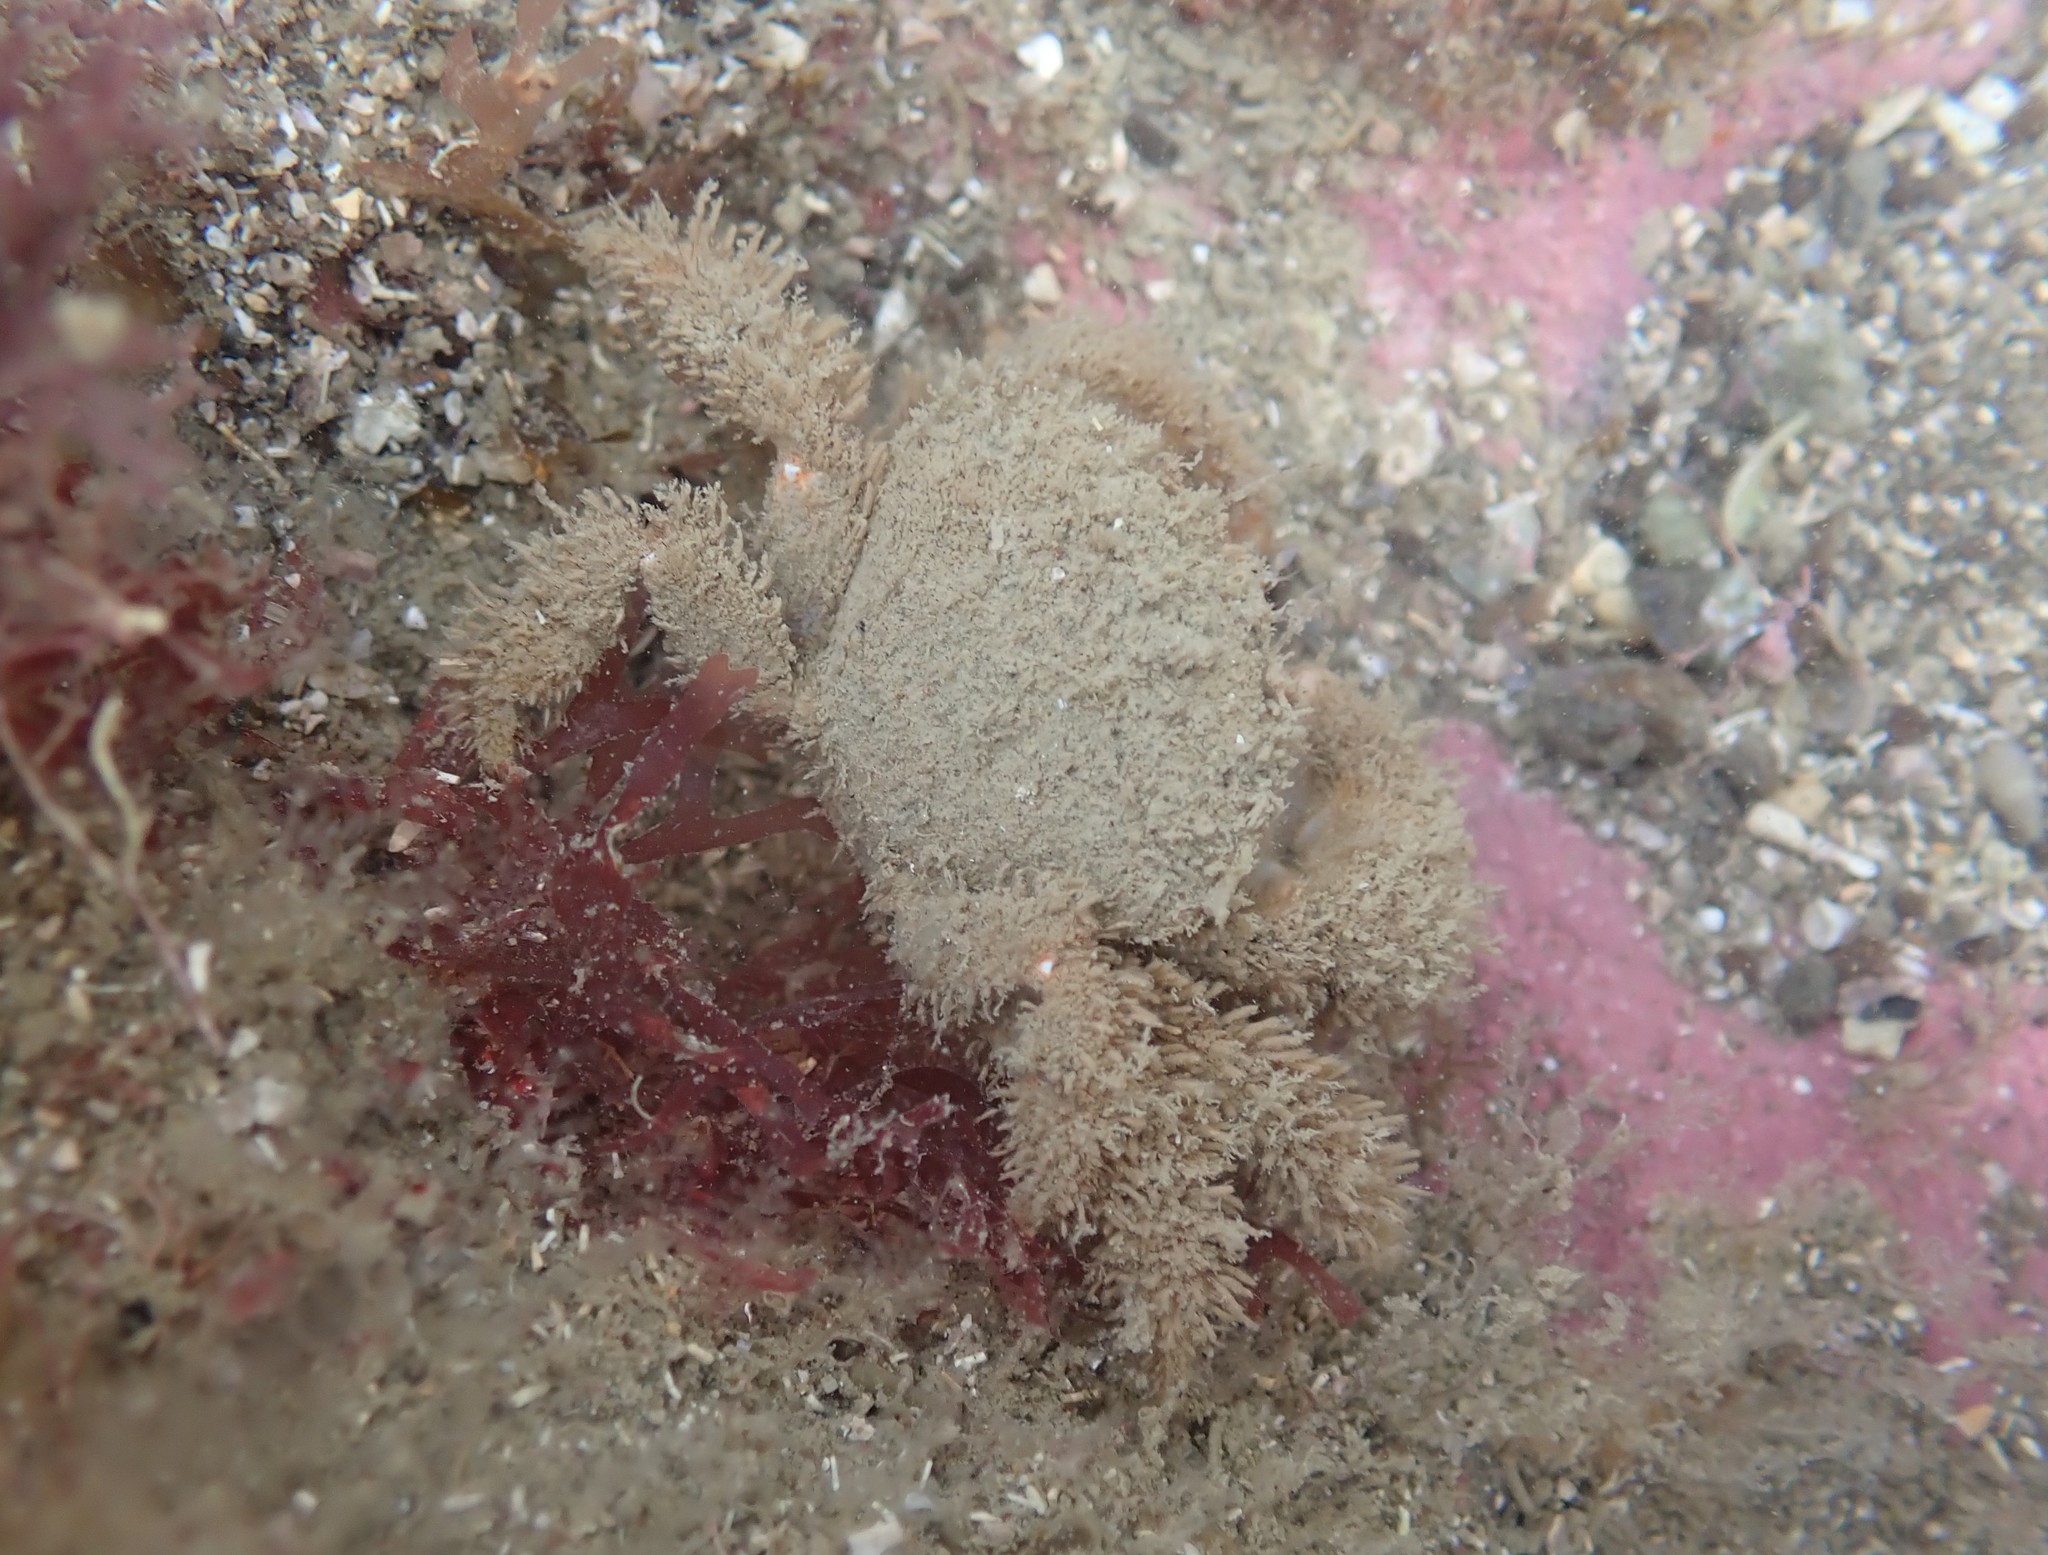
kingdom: Animalia
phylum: Arthropoda
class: Malacostraca
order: Decapoda
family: Pilumnidae
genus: Pilumnus
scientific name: Pilumnus lumpinus
